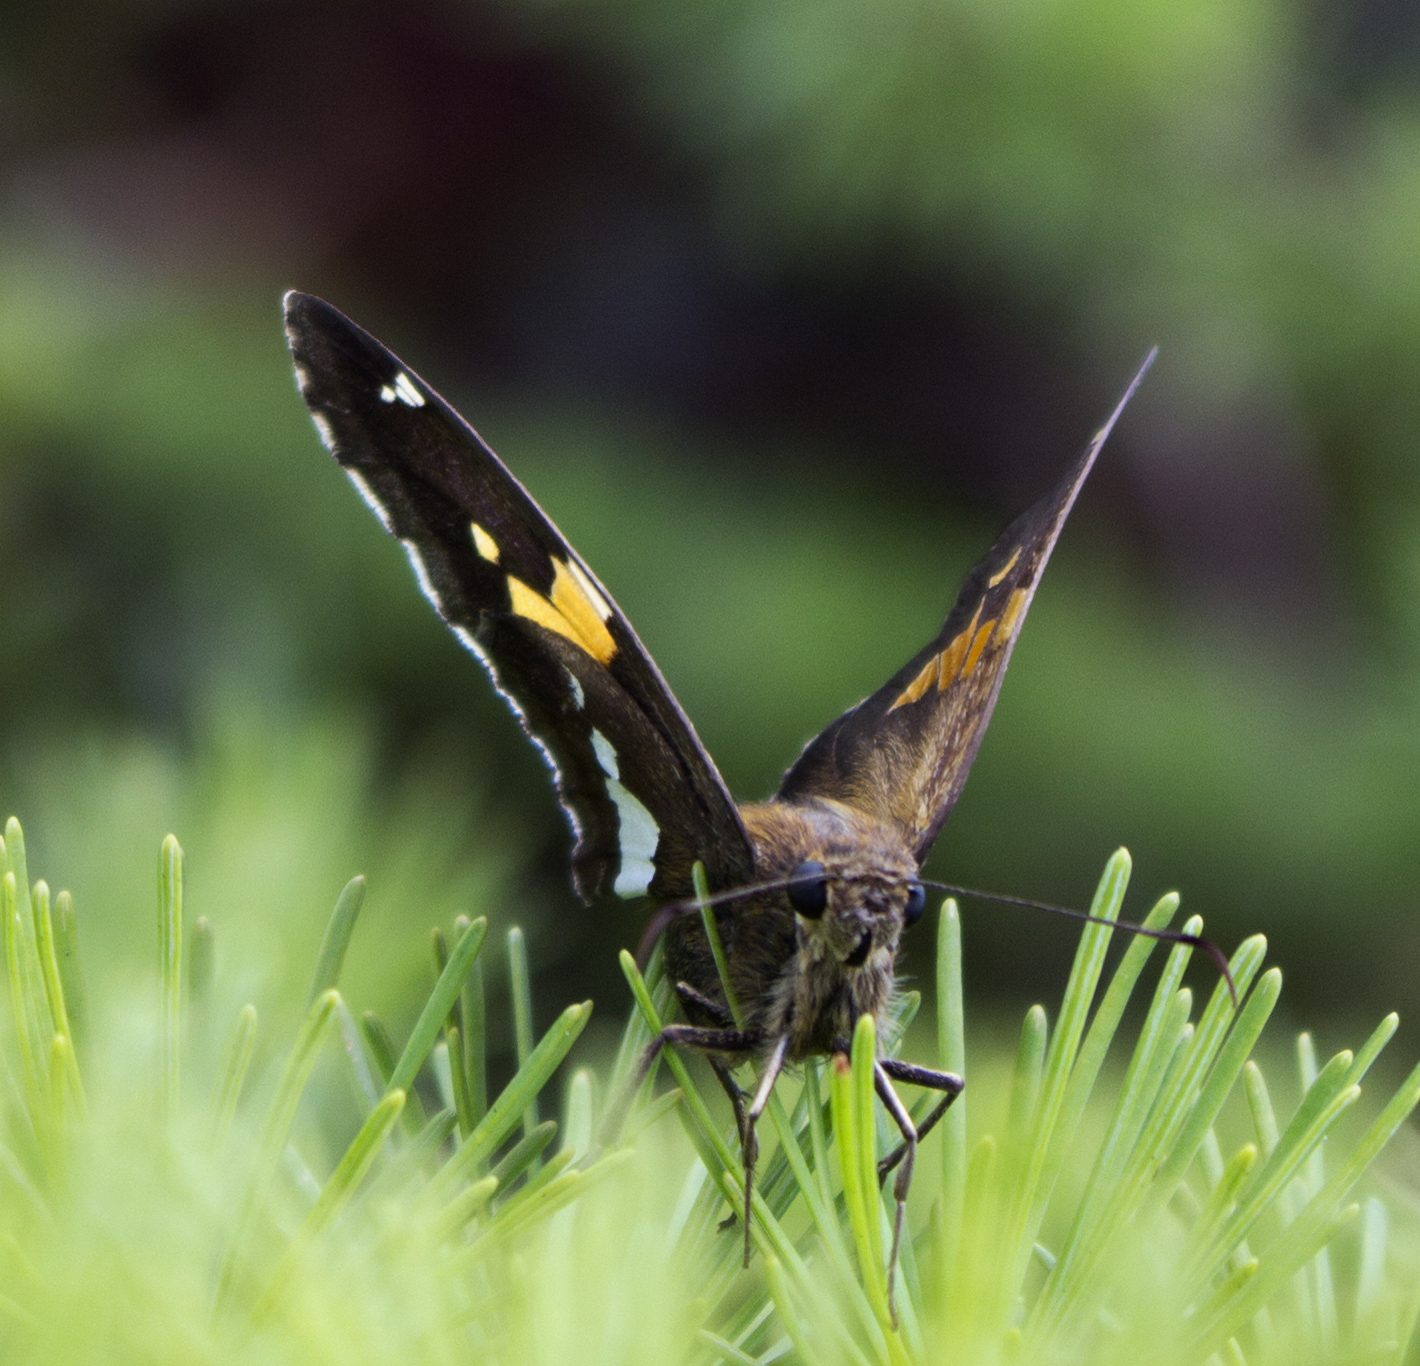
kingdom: Animalia
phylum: Arthropoda
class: Insecta
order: Lepidoptera
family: Hesperiidae
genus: Epargyreus
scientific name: Epargyreus clarus
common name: Silver-spotted skipper
